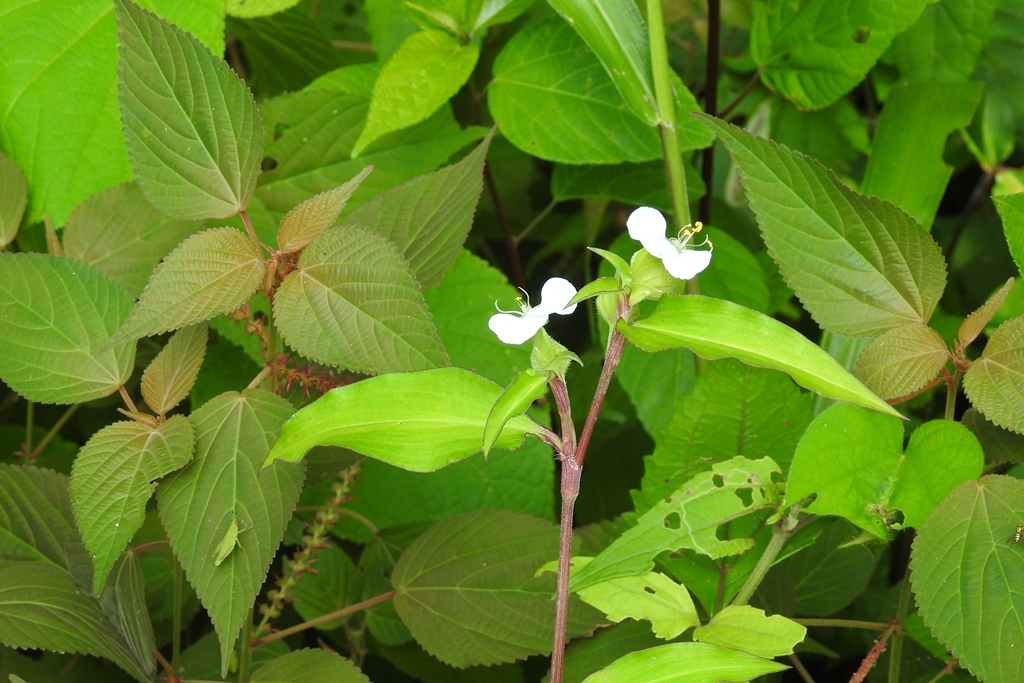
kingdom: Plantae
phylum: Tracheophyta
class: Liliopsida
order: Commelinales
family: Commelinaceae
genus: Commelina
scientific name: Commelina erecta
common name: Blousel blommetjie
